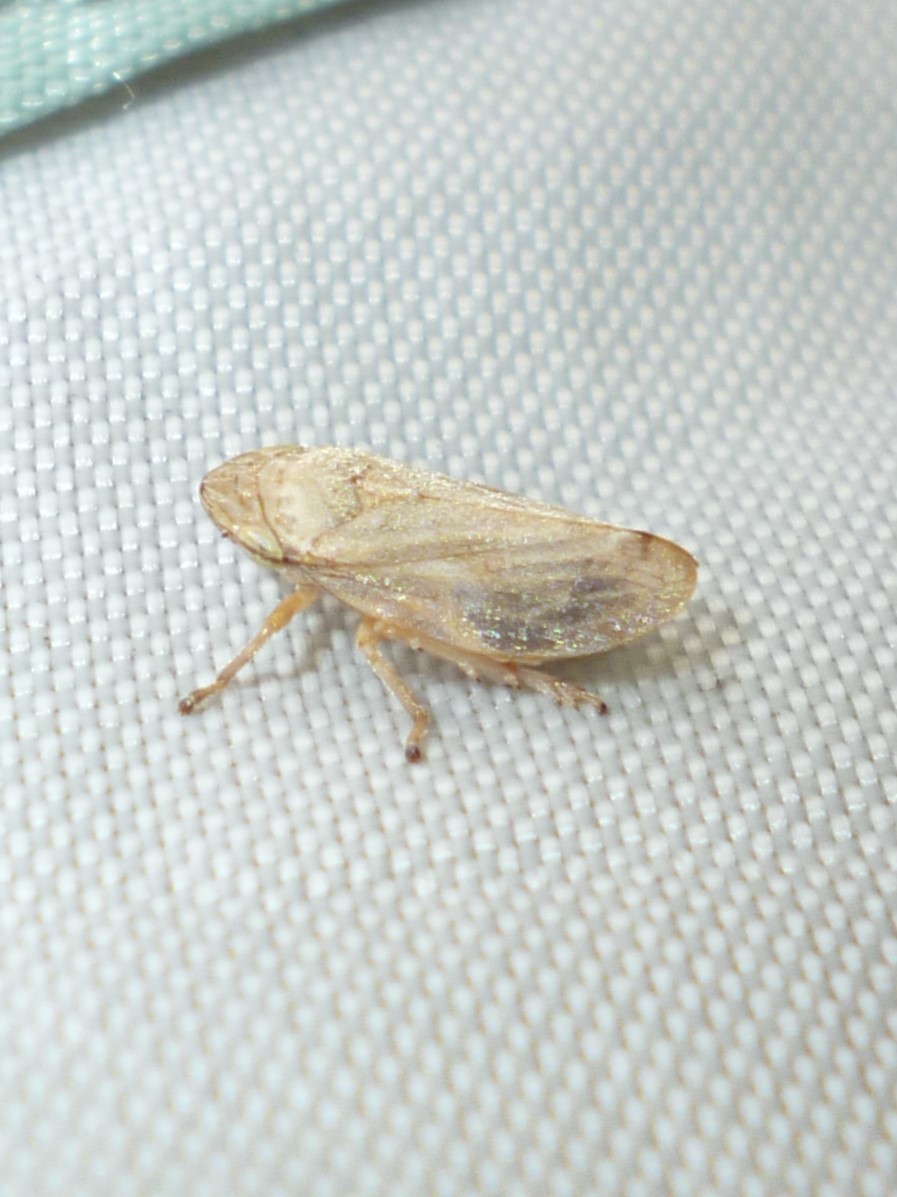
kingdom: Animalia
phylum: Arthropoda
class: Insecta
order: Hemiptera
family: Aphrophoridae
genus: Philaenus
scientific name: Philaenus spumarius
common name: Meadow spittlebug
